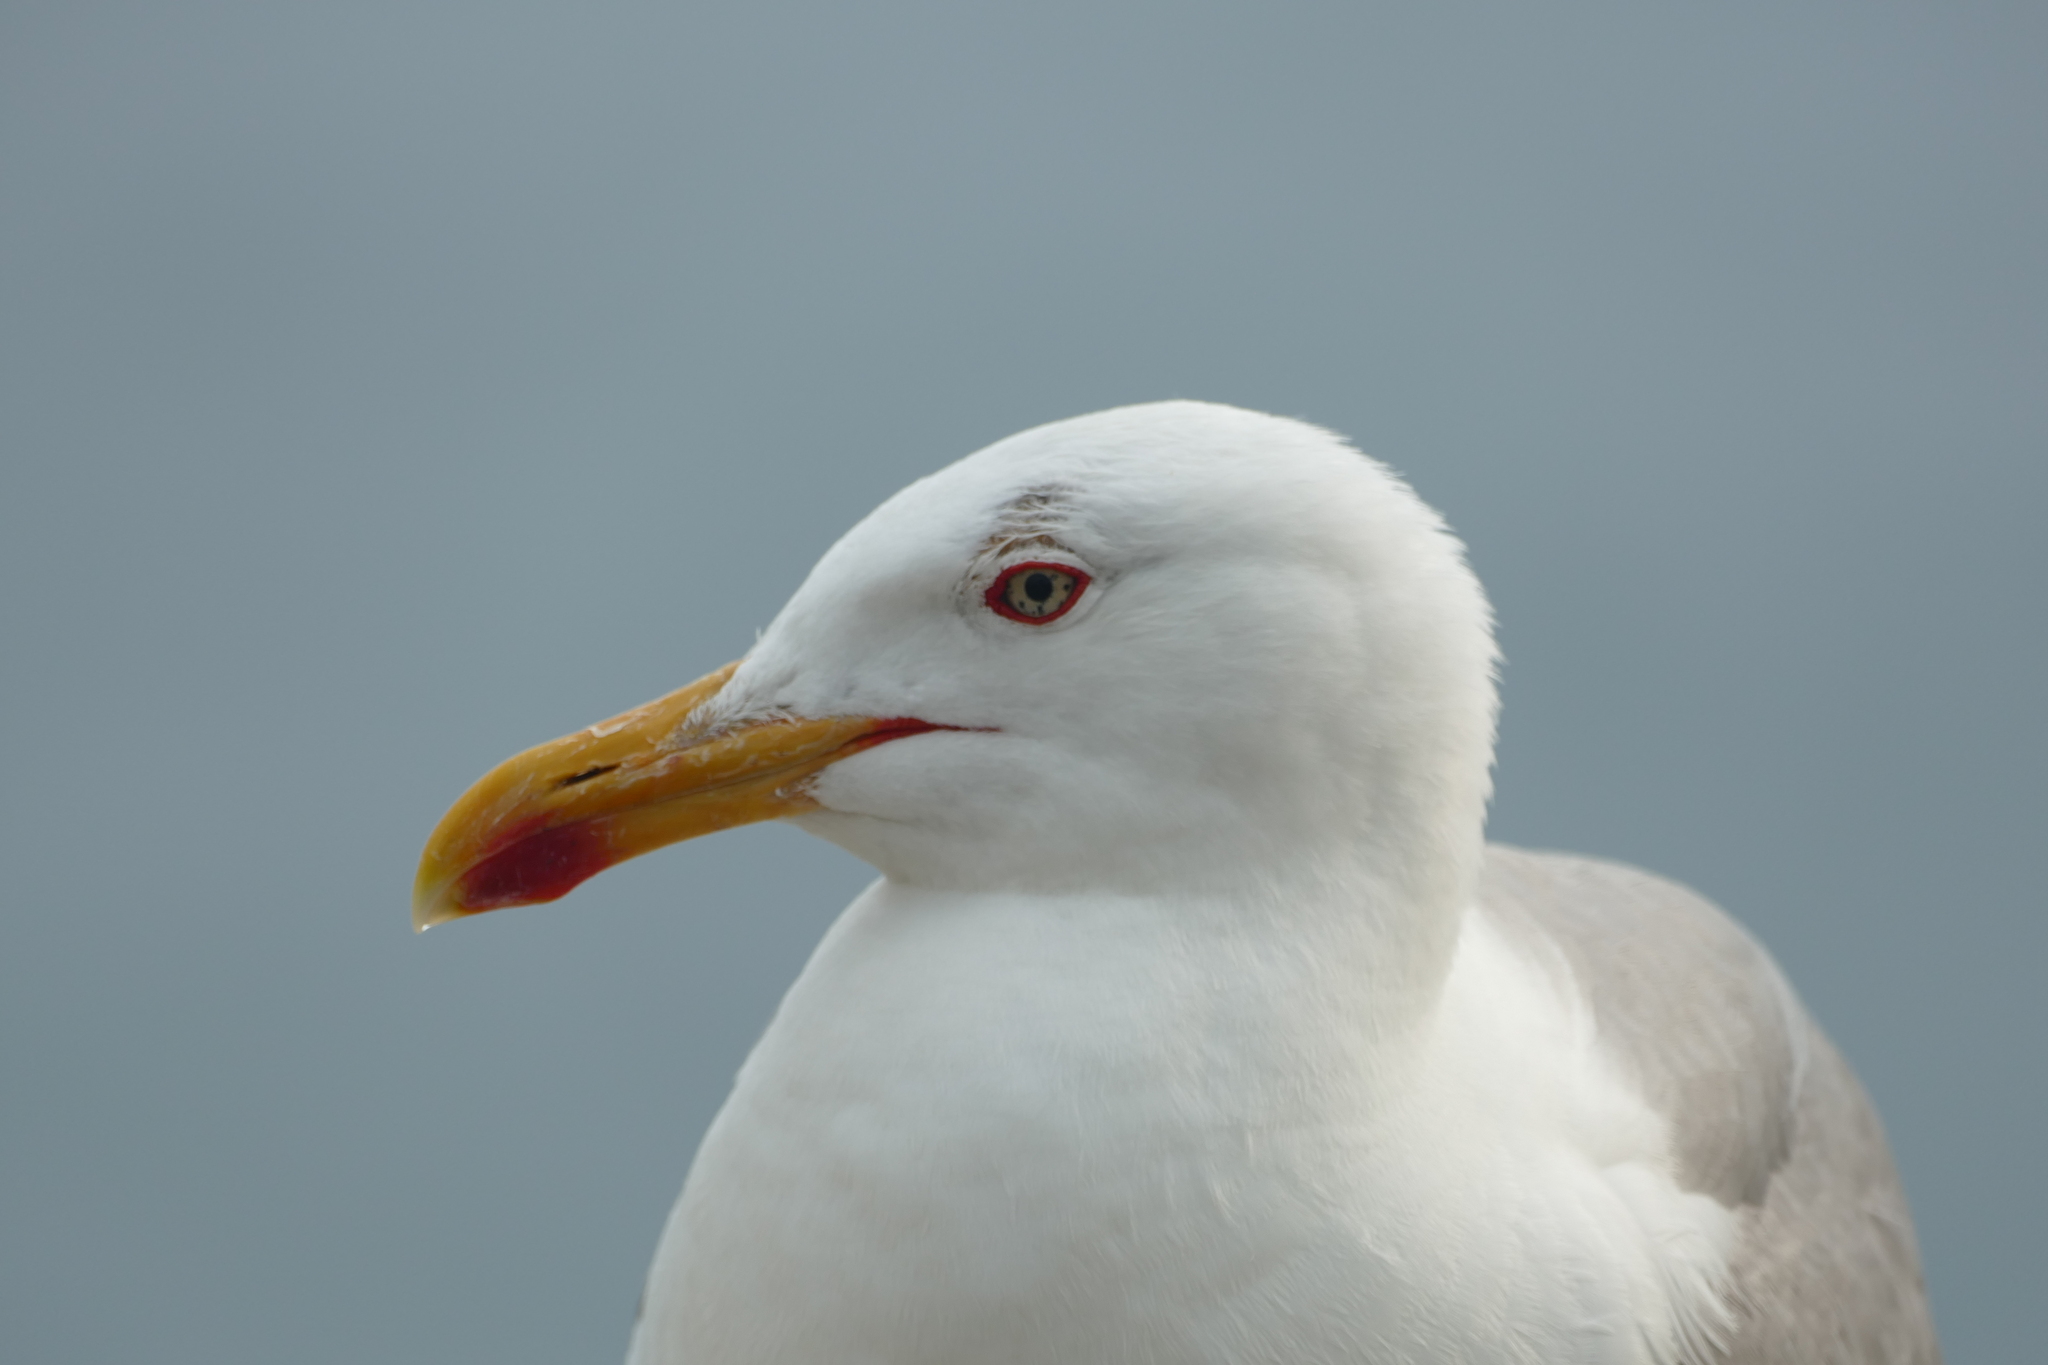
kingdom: Animalia
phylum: Chordata
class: Aves
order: Charadriiformes
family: Laridae
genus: Larus
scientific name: Larus michahellis
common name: Yellow-legged gull
